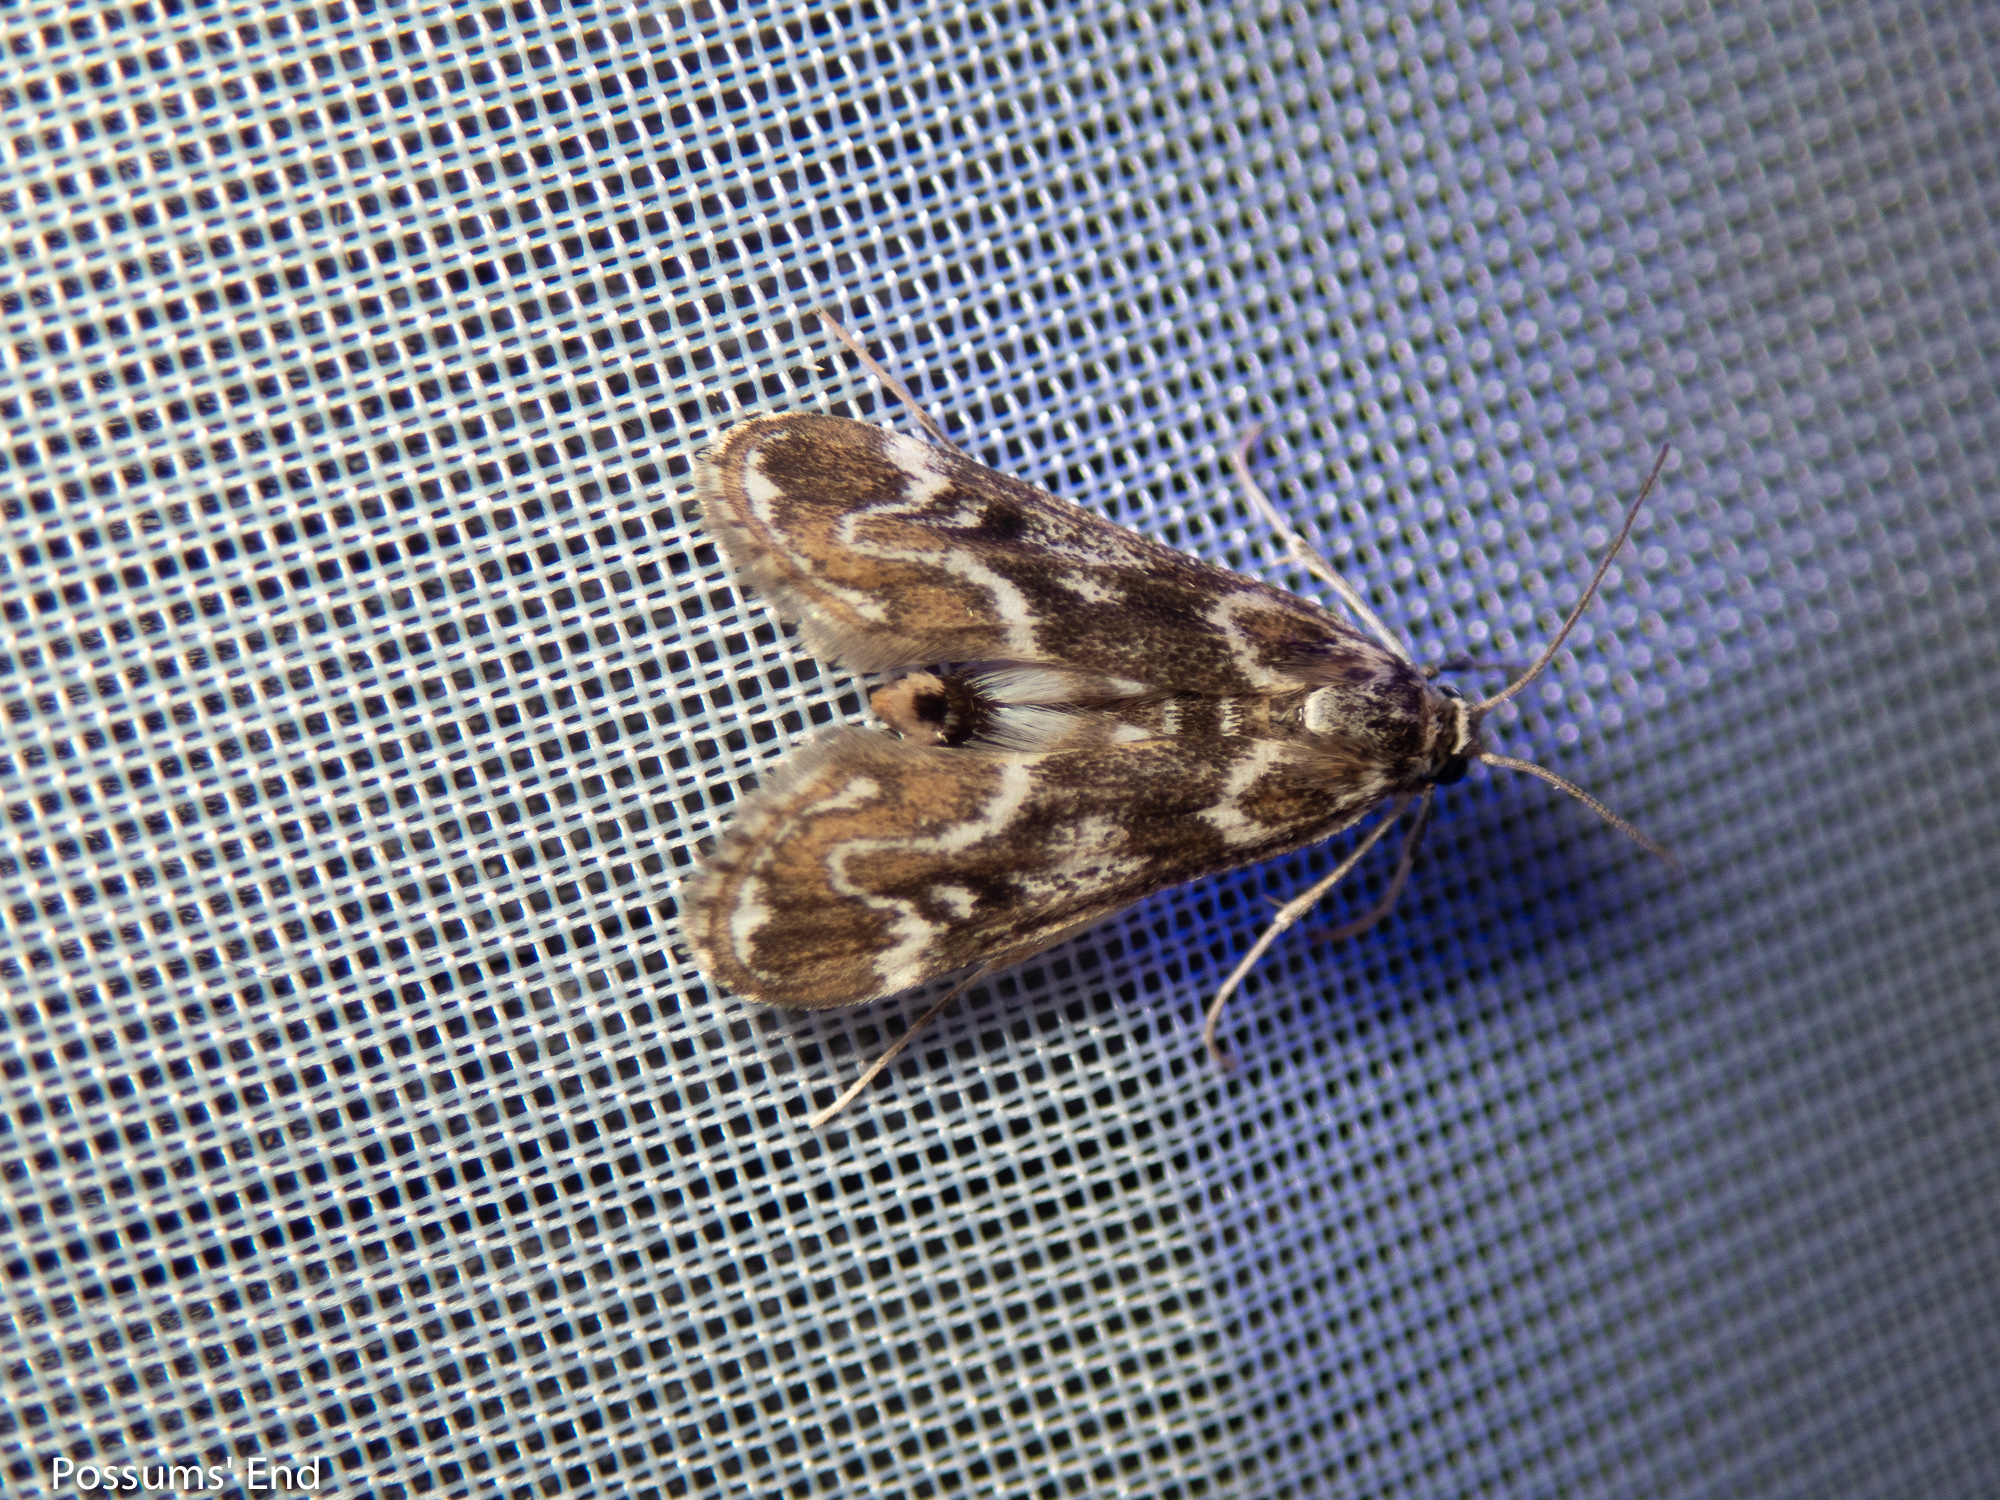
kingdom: Animalia
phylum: Arthropoda
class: Insecta
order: Lepidoptera
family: Crambidae
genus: Hygraula
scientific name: Hygraula nitens
